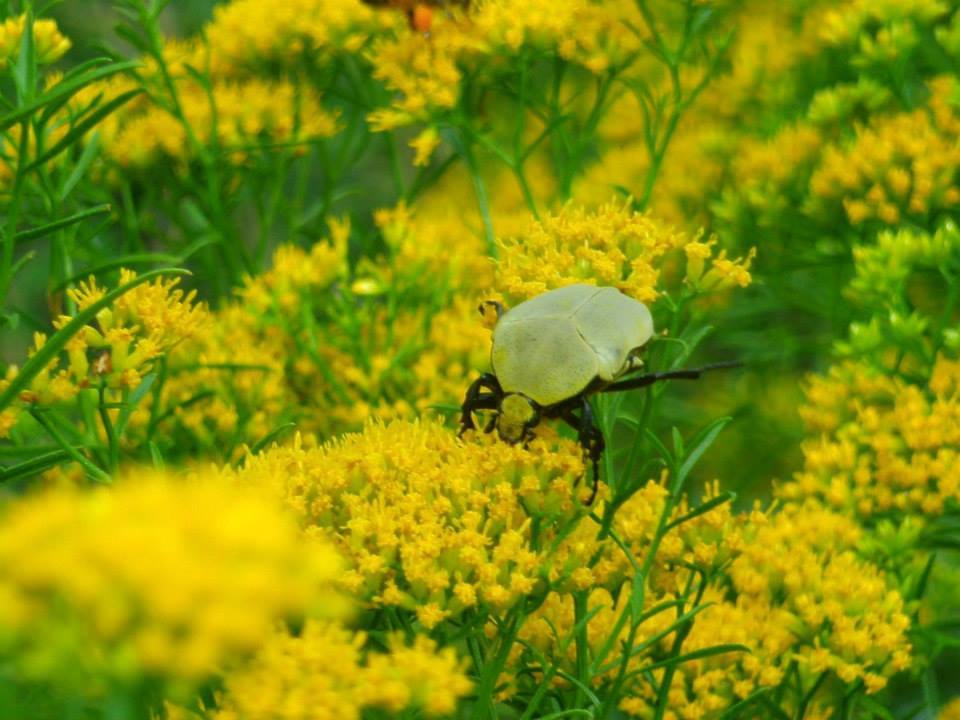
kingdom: Animalia
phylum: Arthropoda
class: Insecta
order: Coleoptera
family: Scarabaeidae
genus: Hologymnetis
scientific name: Hologymnetis cinerea
